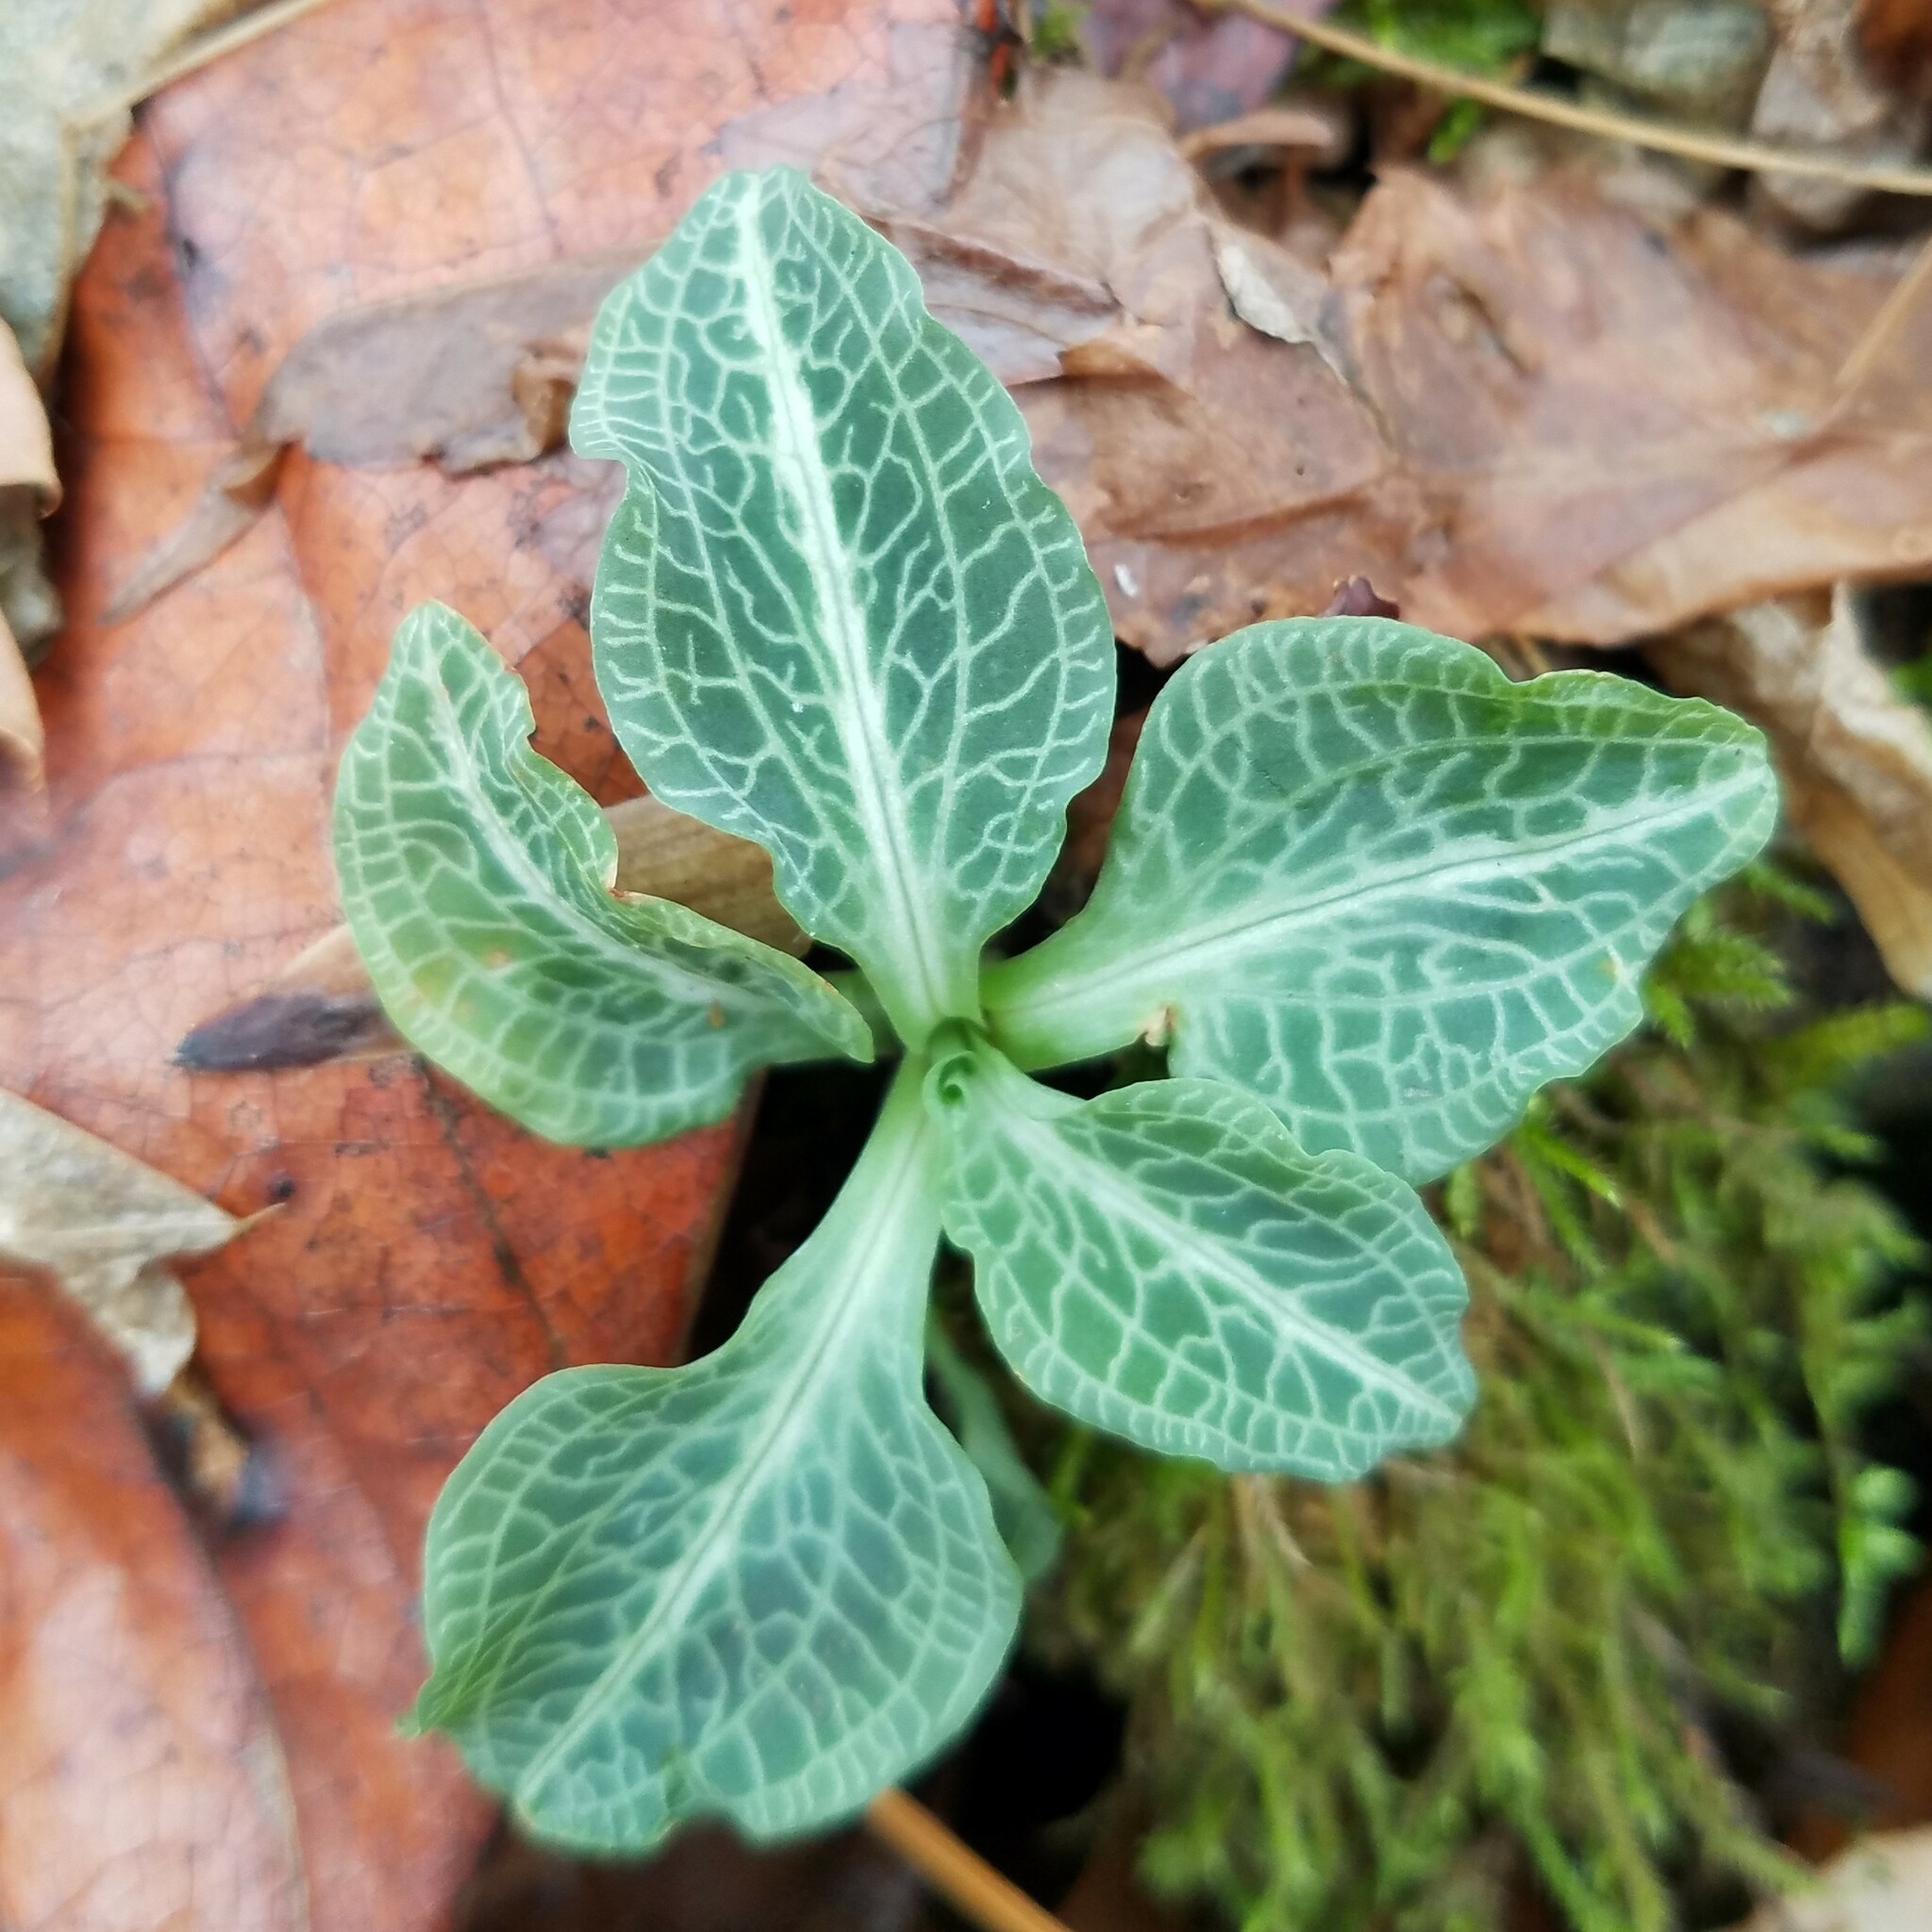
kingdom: Plantae
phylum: Tracheophyta
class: Liliopsida
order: Asparagales
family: Orchidaceae
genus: Goodyera
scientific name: Goodyera pubescens
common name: Downy rattlesnake-plantain
